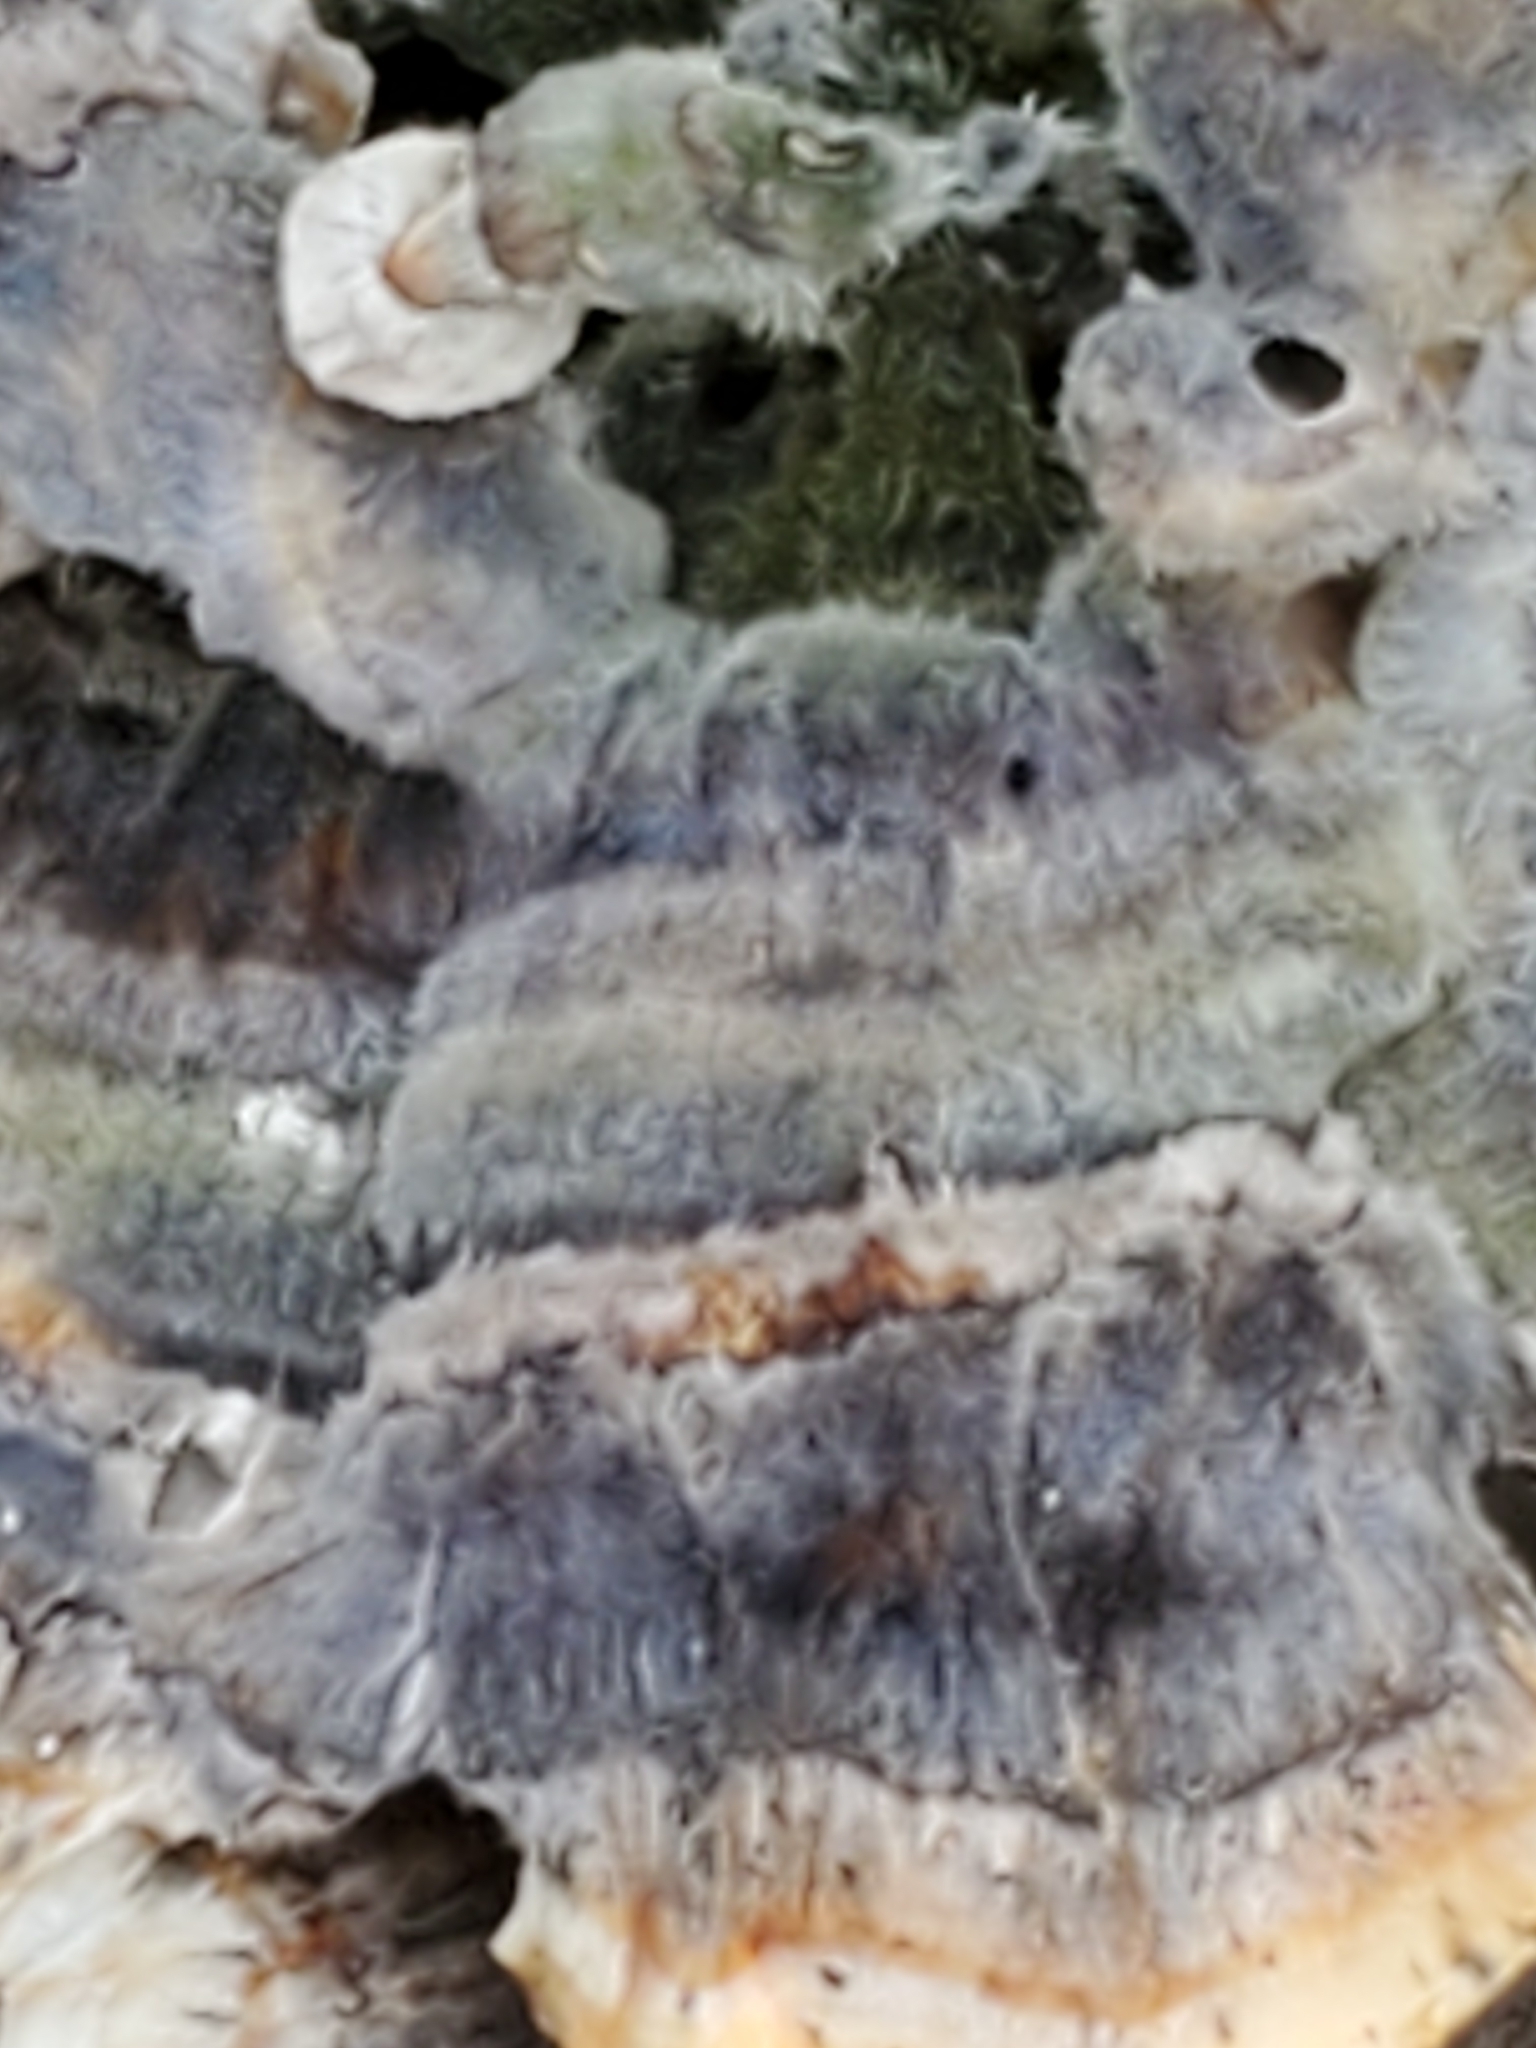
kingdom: Fungi
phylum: Basidiomycota
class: Agaricomycetes
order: Polyporales
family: Polyporaceae
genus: Trametes
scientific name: Trametes versicolor
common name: Turkeytail
